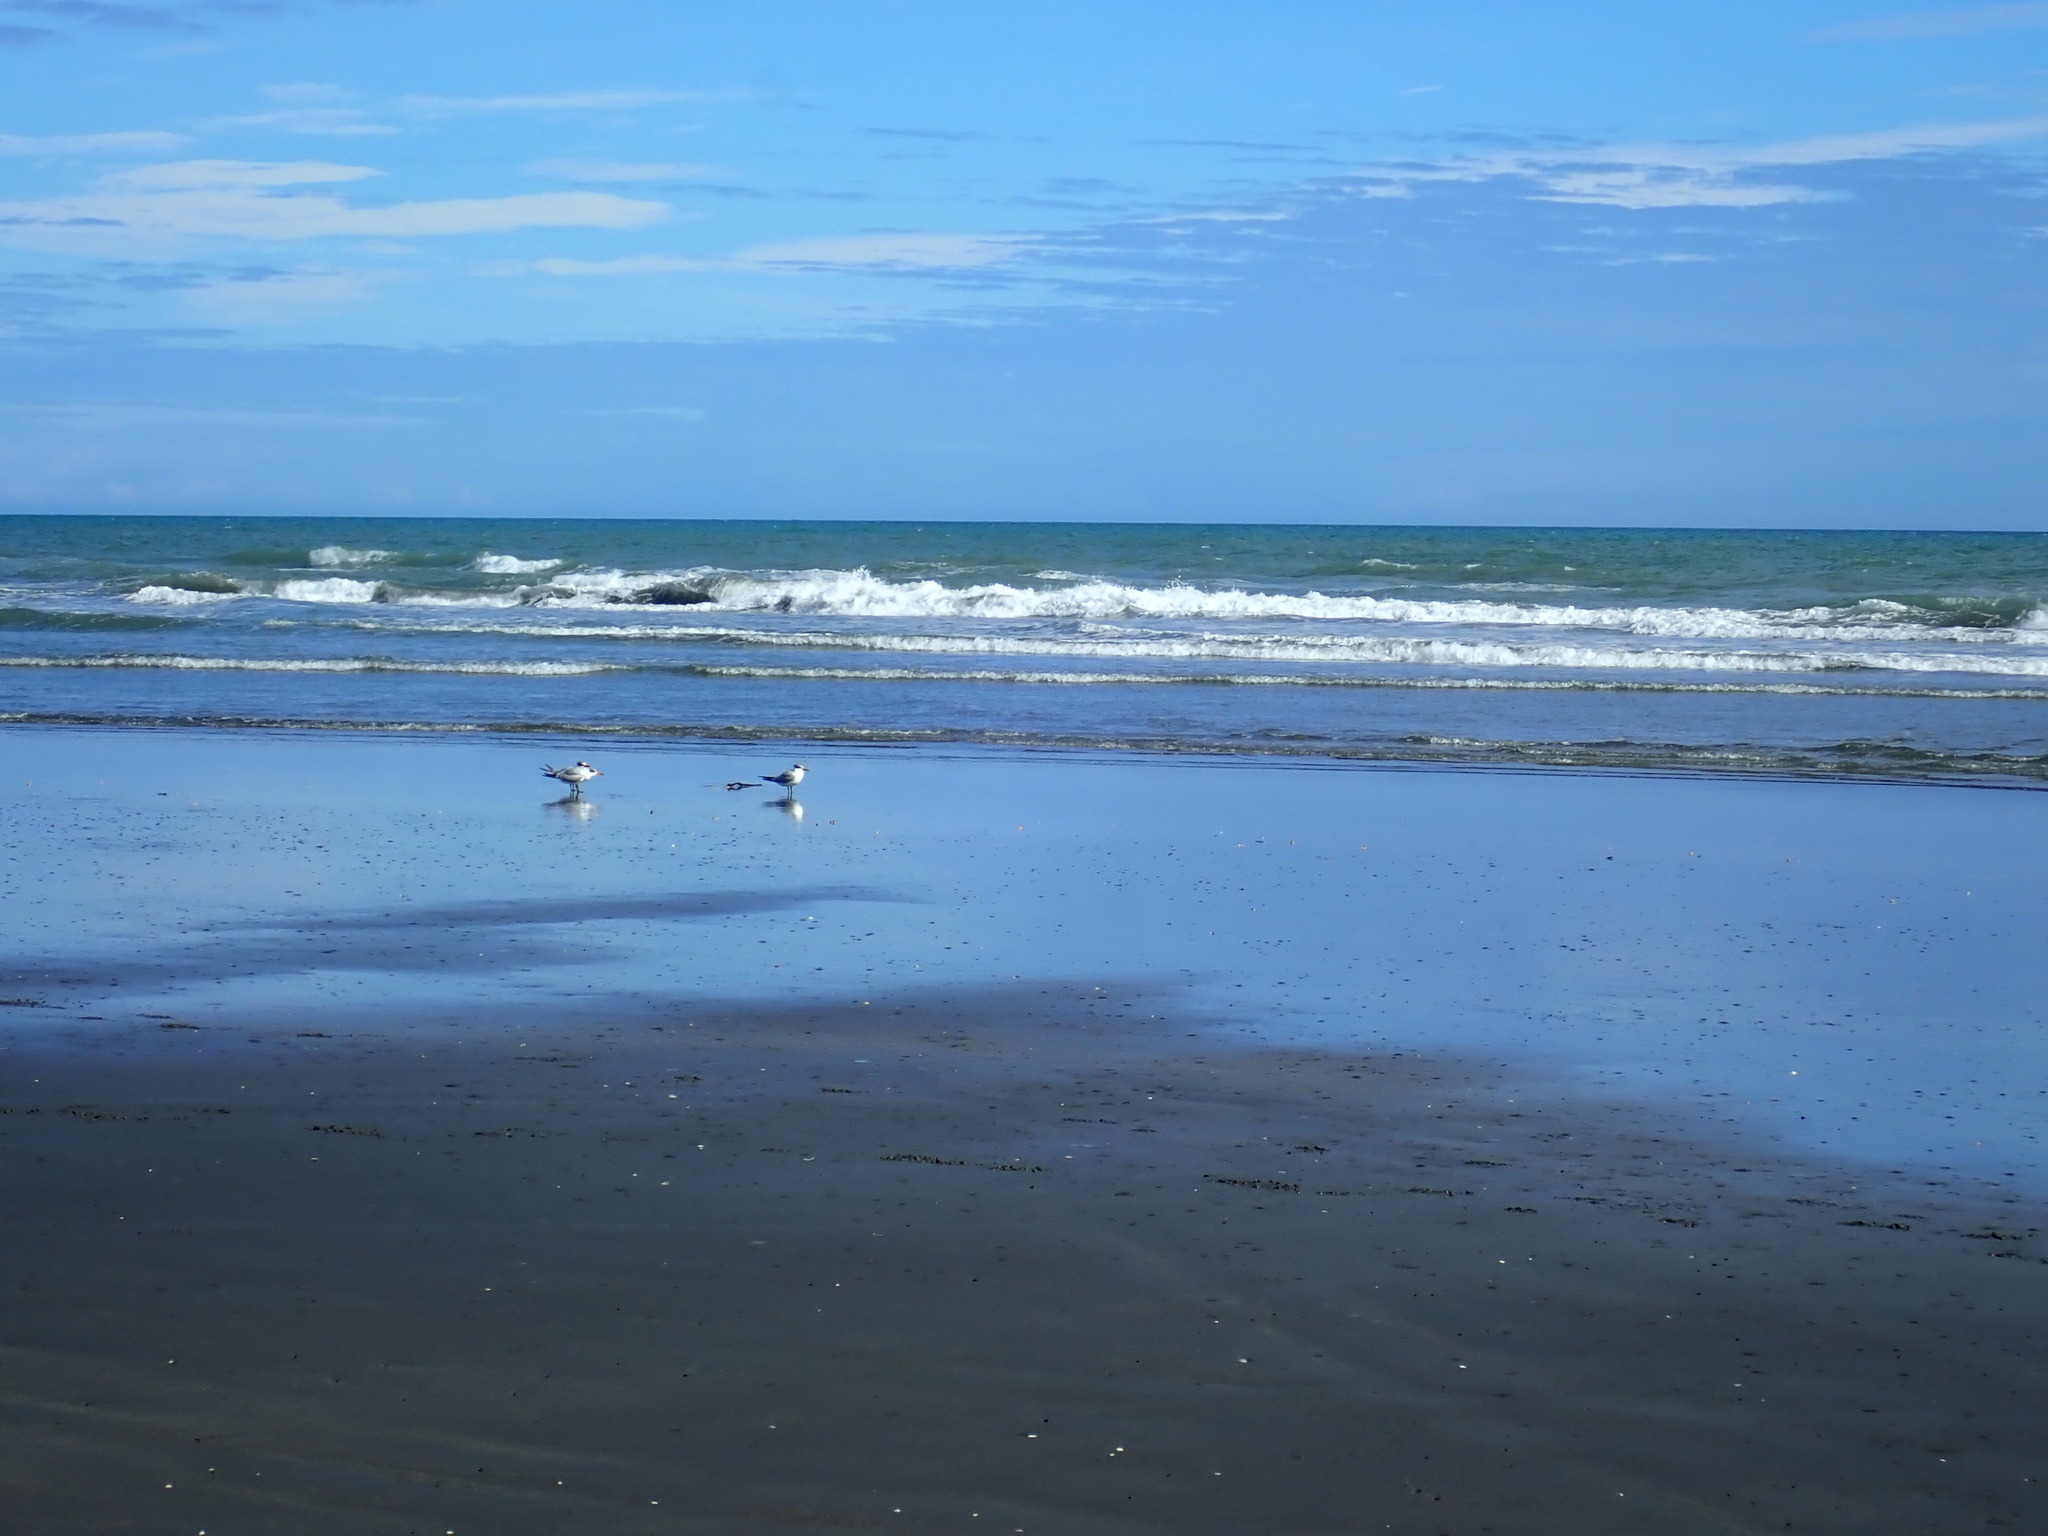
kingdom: Animalia
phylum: Chordata
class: Aves
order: Charadriiformes
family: Laridae
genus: Hydroprogne
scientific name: Hydroprogne caspia
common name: Caspian tern
